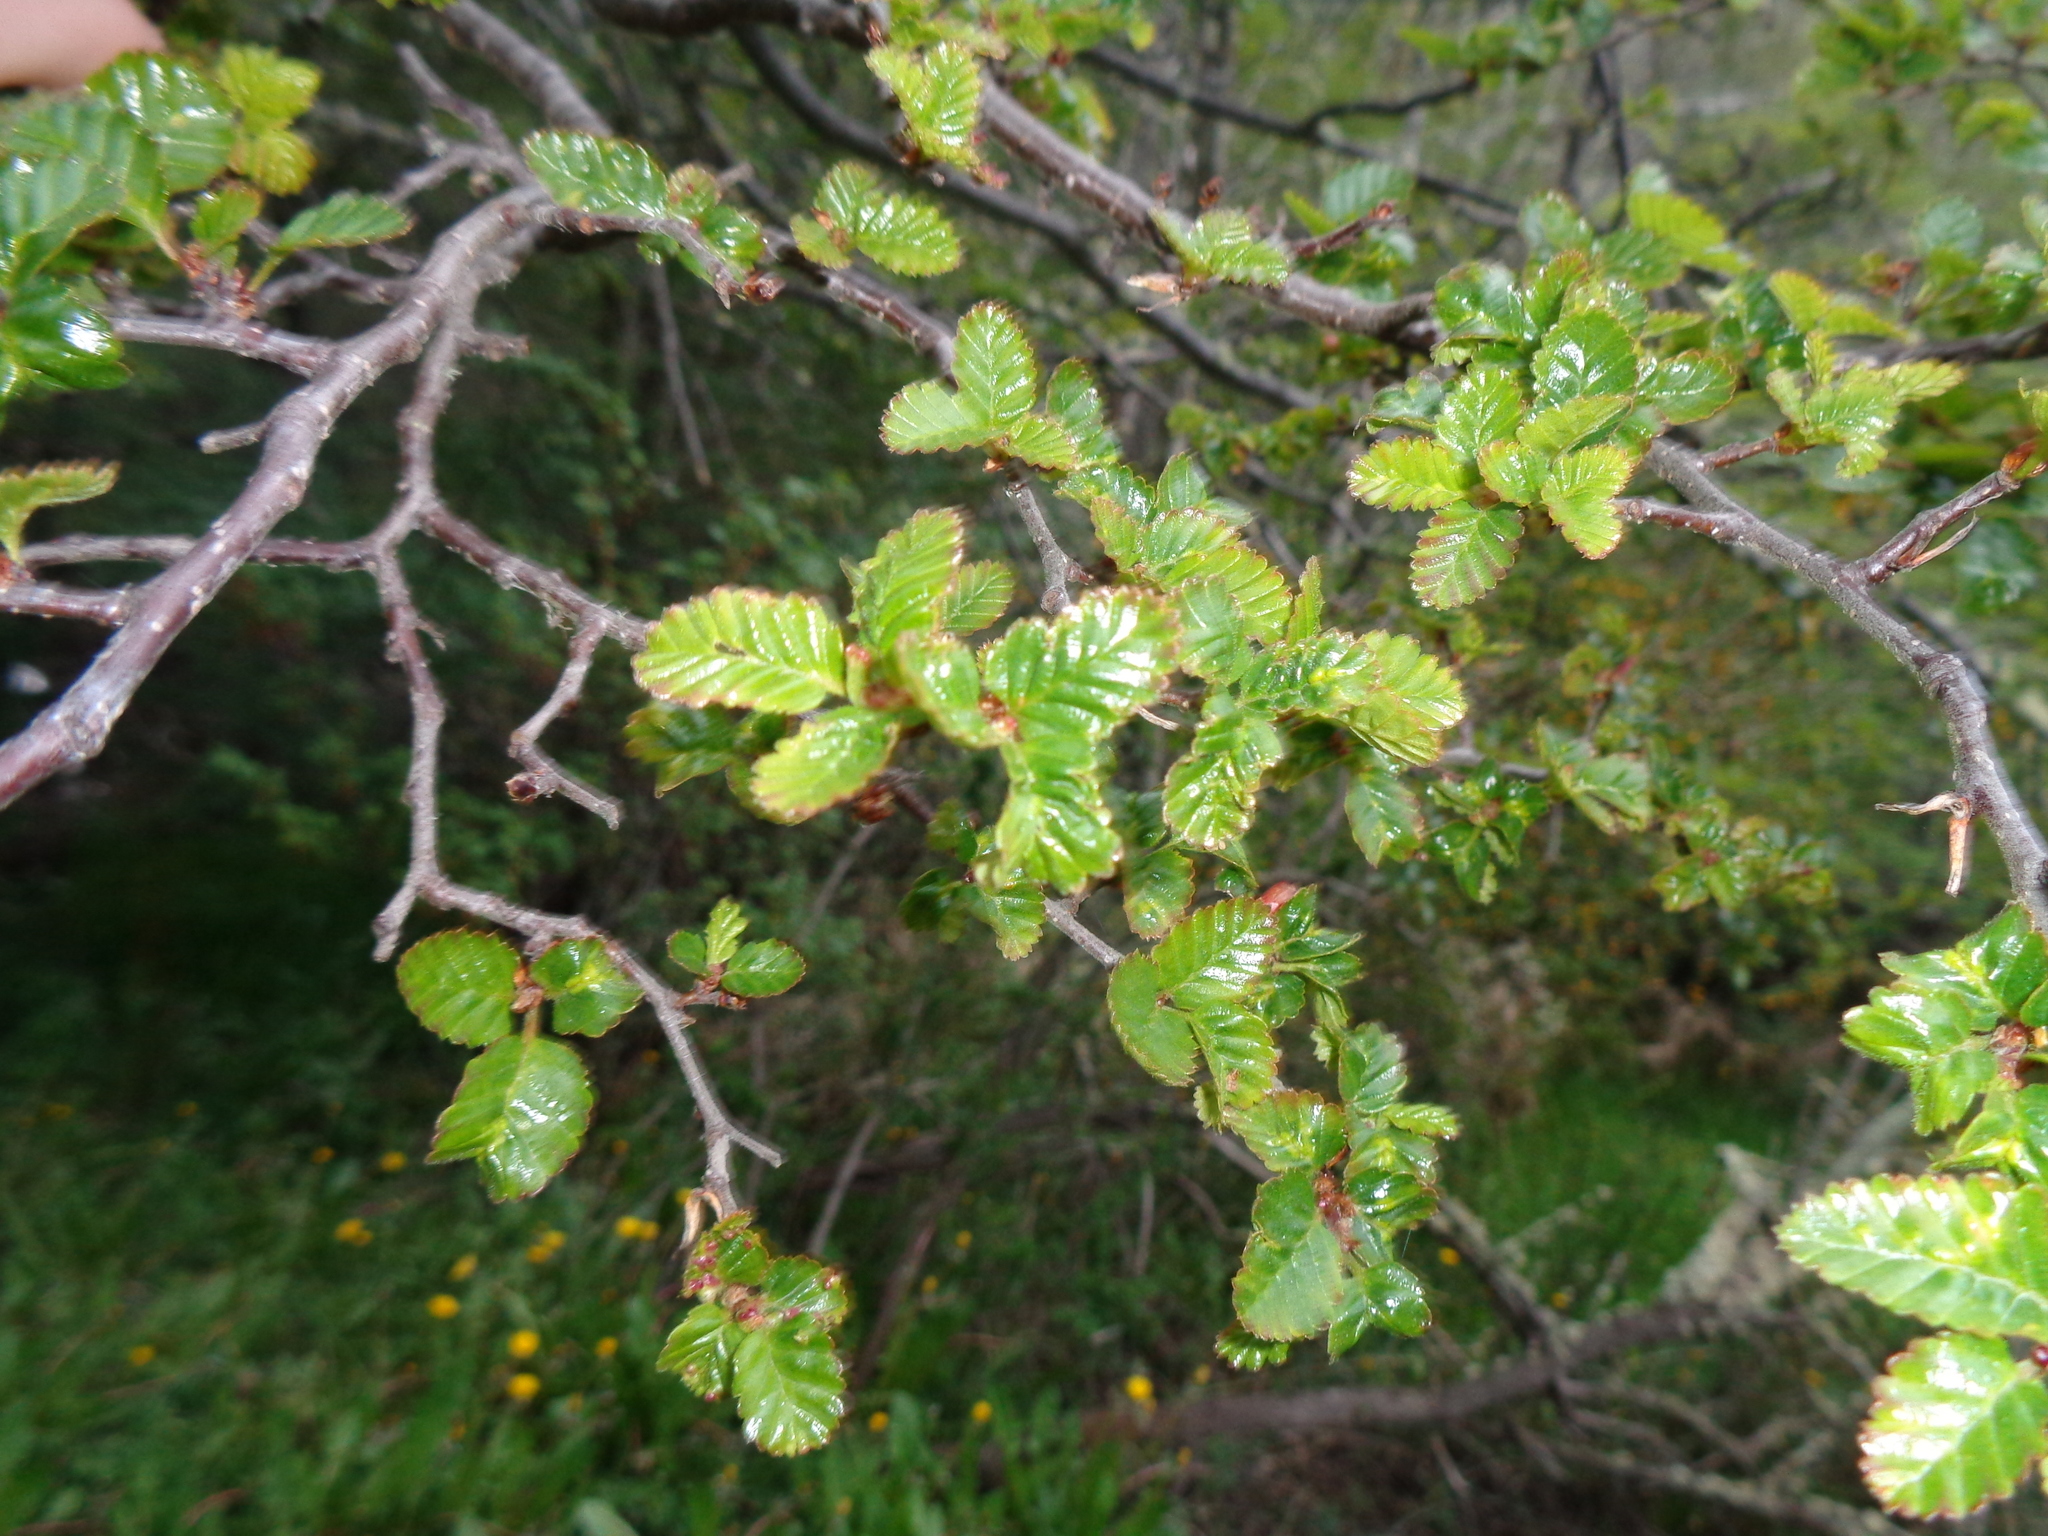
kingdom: Plantae
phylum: Tracheophyta
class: Magnoliopsida
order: Fagales
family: Nothofagaceae
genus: Nothofagus
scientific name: Nothofagus pumilio
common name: Lenga beech
